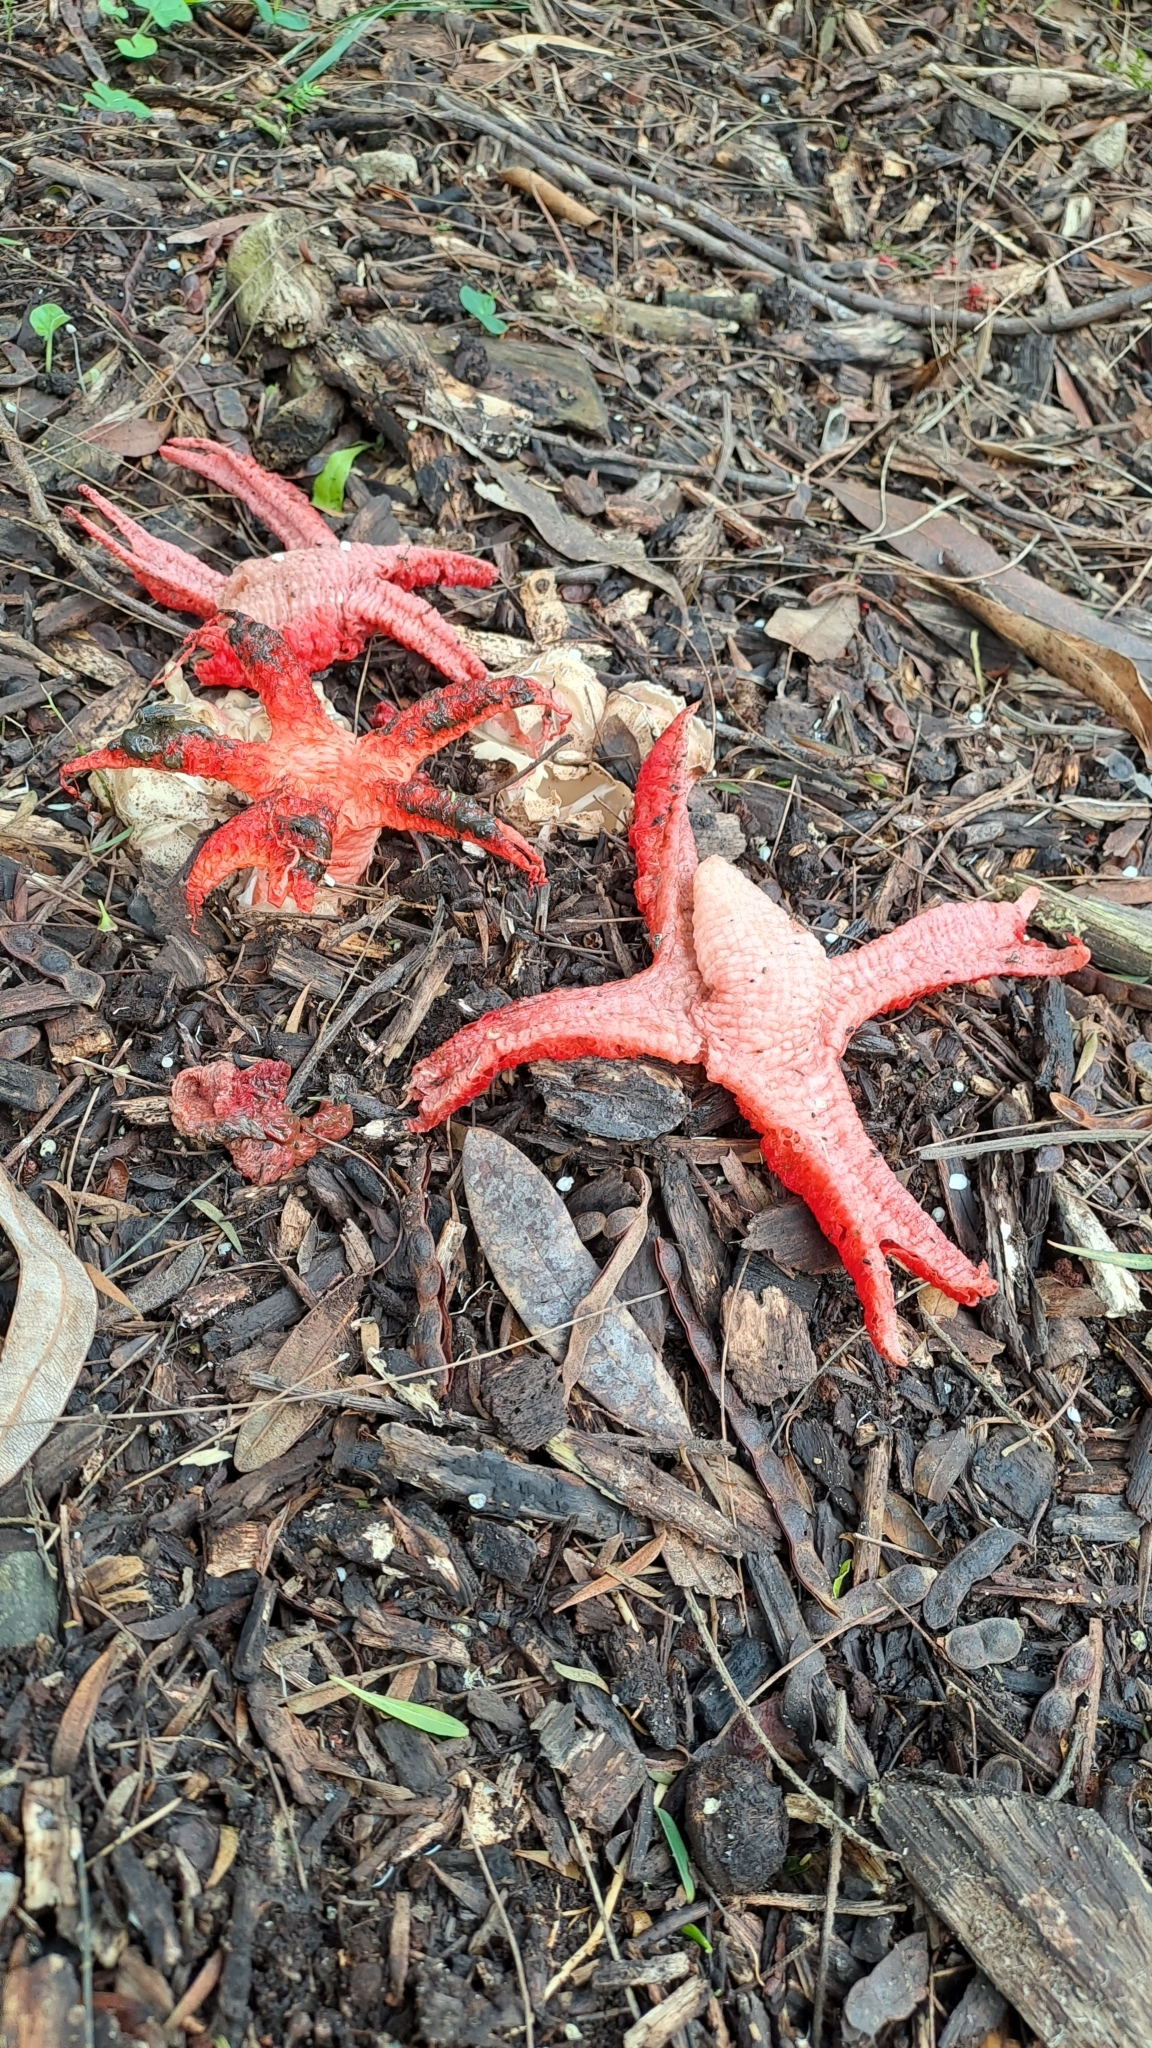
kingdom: Fungi
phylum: Basidiomycota
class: Agaricomycetes
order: Phallales
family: Phallaceae
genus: Clathrus
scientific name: Clathrus archeri
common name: Devil's fingers
